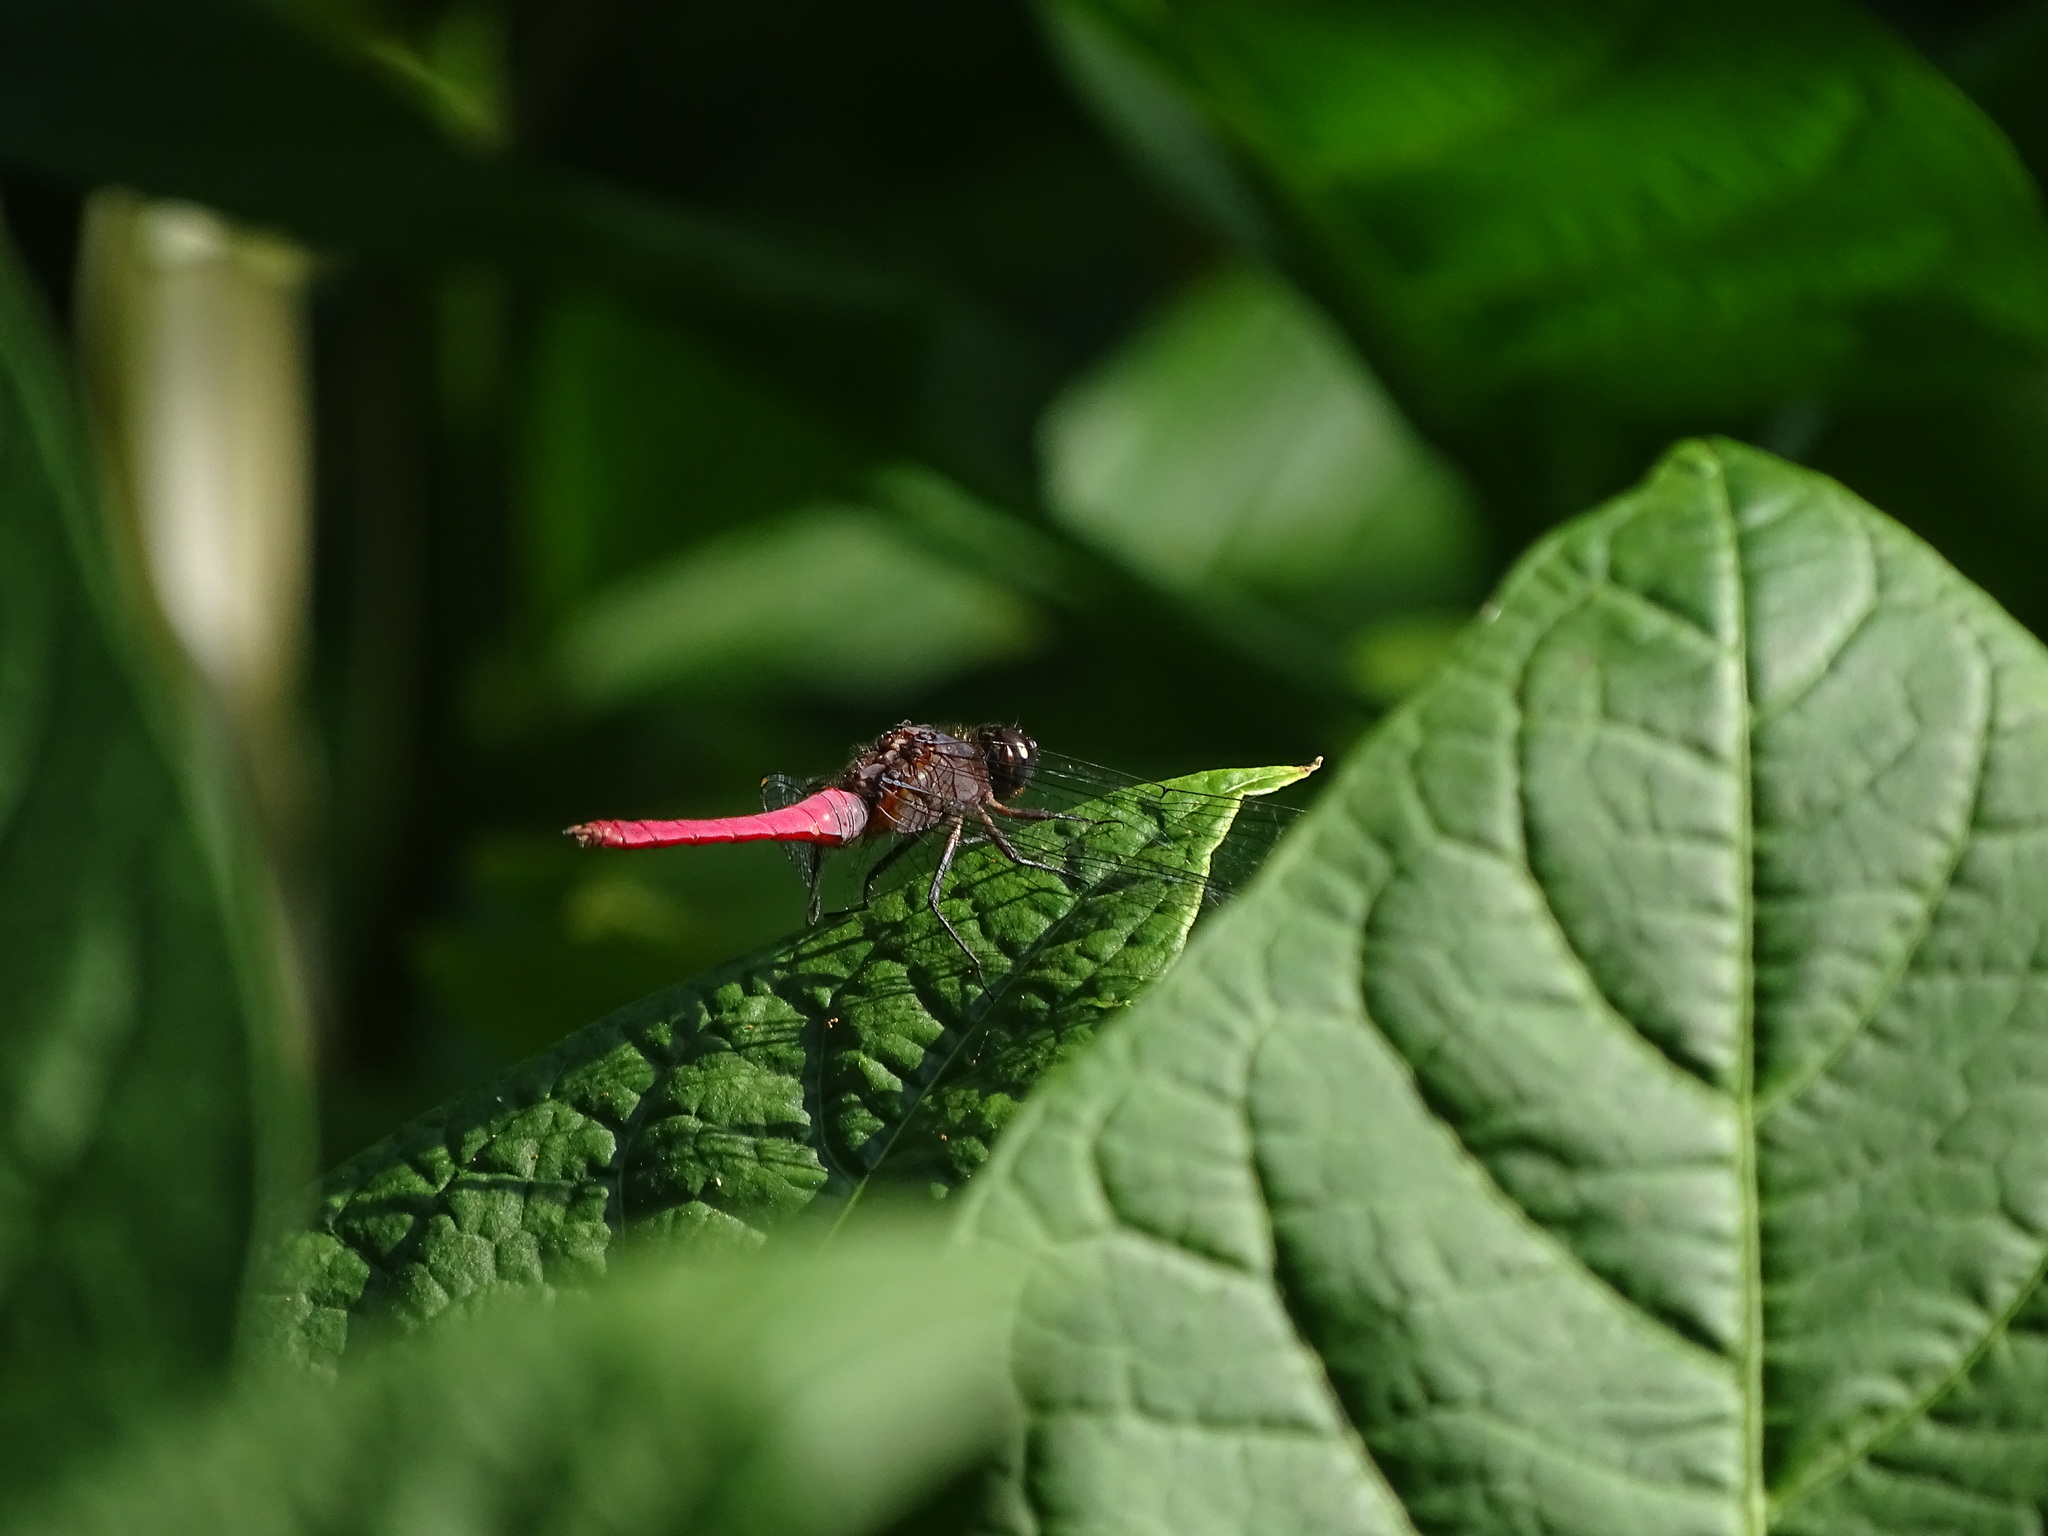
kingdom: Animalia
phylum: Arthropoda
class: Insecta
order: Odonata
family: Libellulidae
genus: Orthetrum
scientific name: Orthetrum pruinosum
